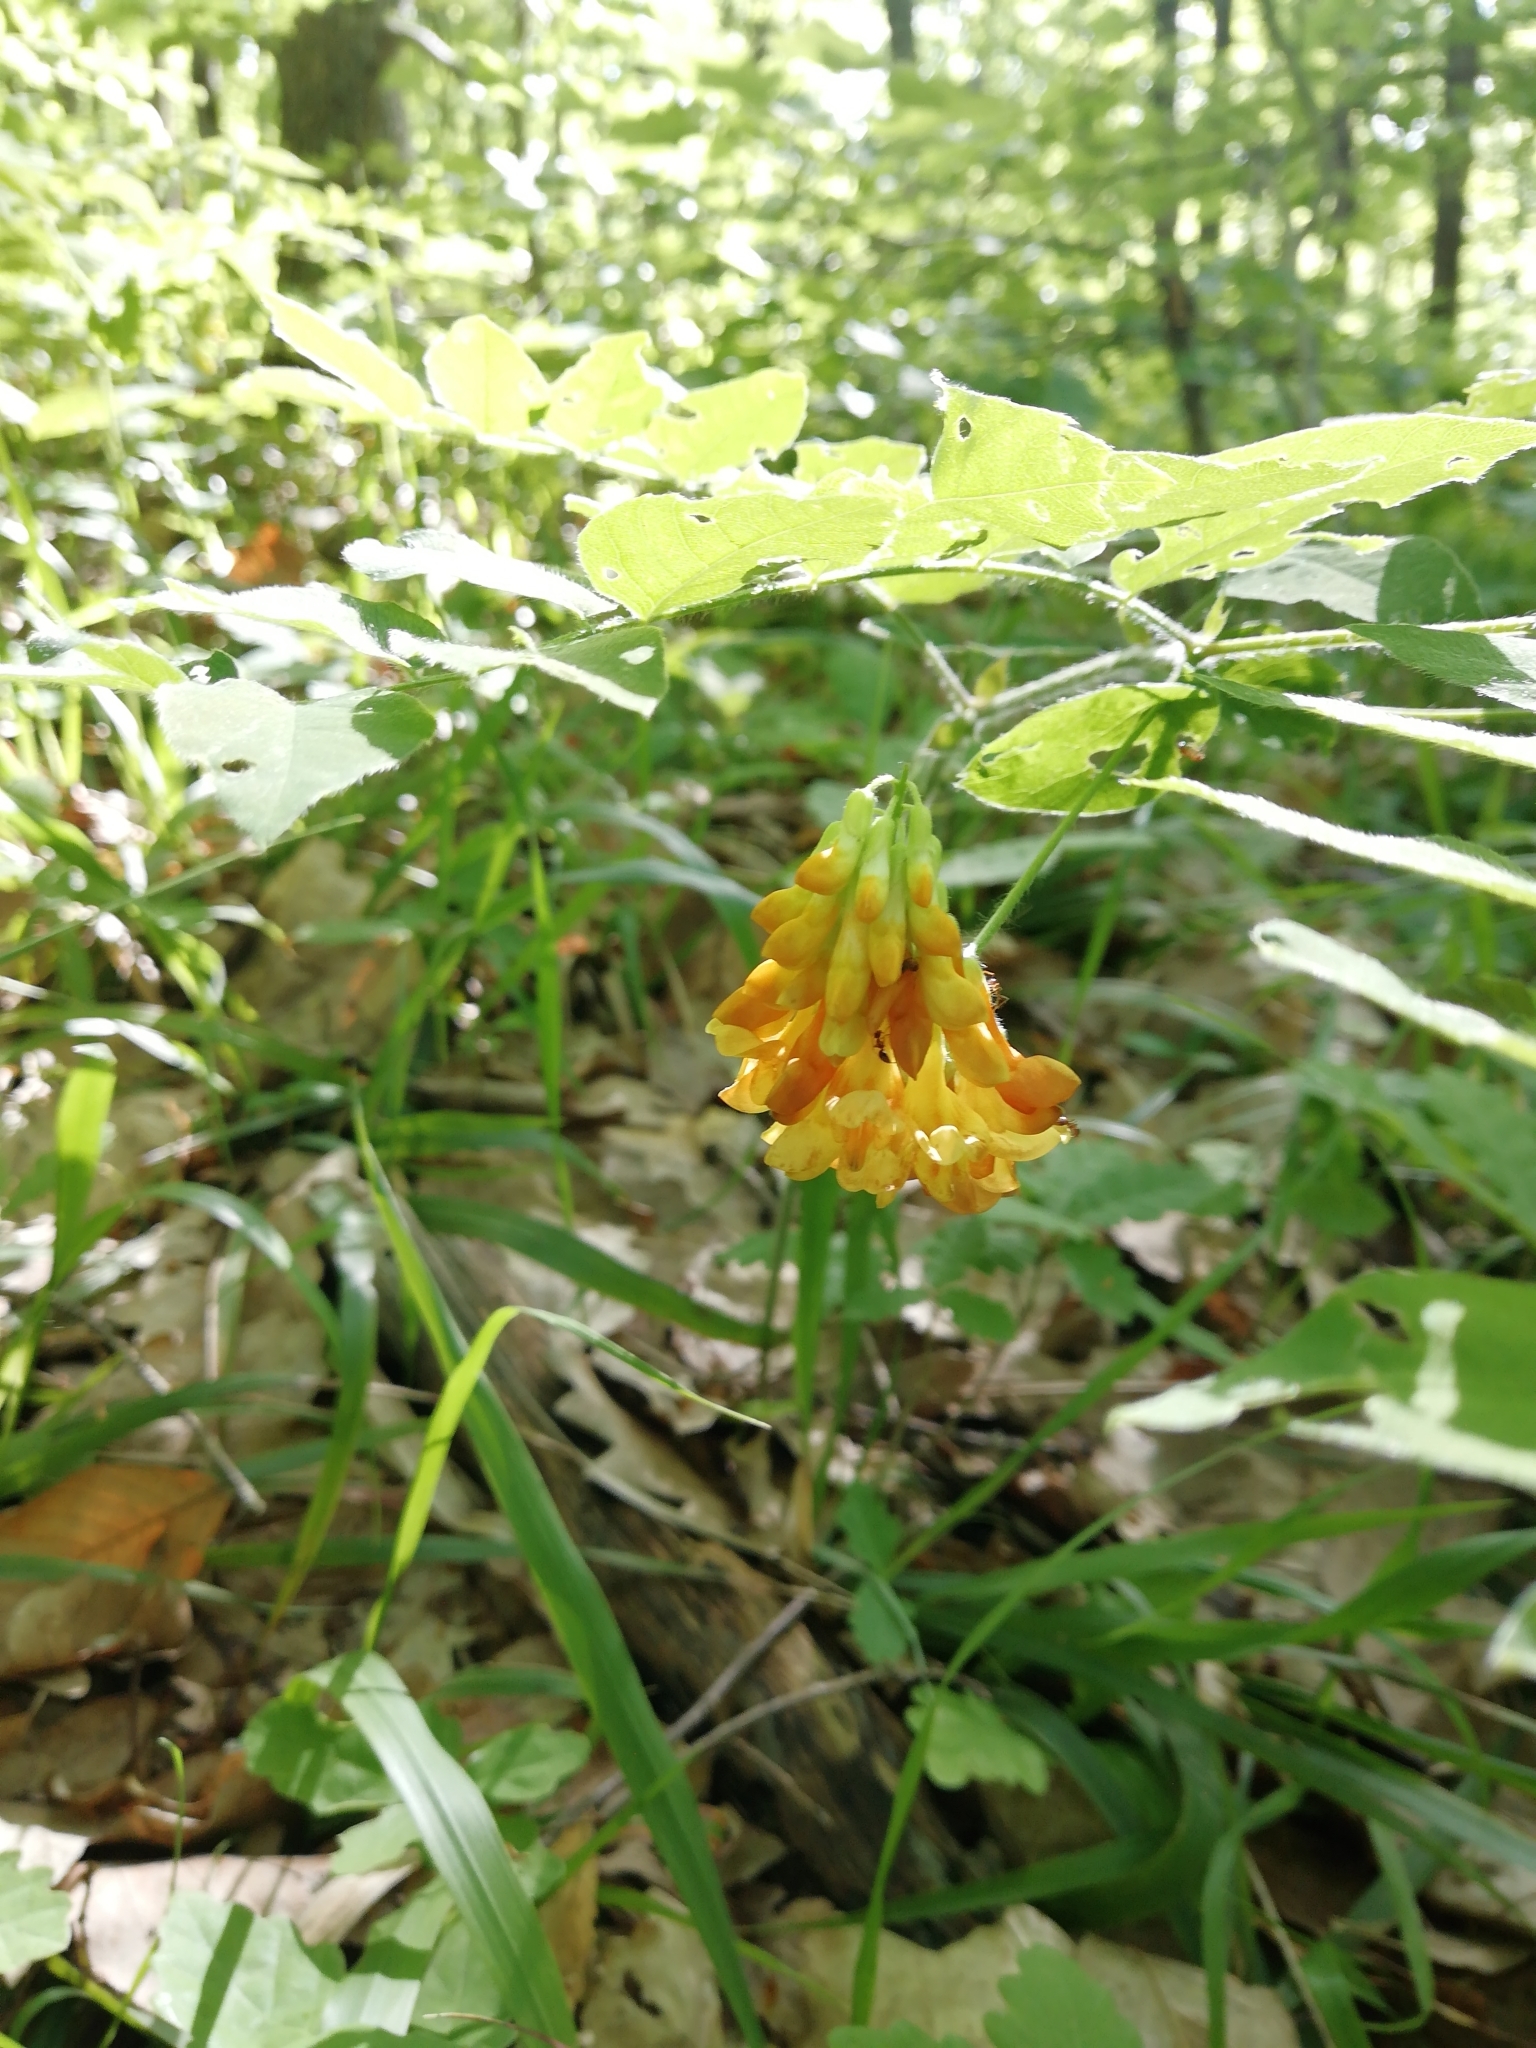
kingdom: Plantae
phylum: Tracheophyta
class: Magnoliopsida
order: Fabales
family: Fabaceae
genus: Vicia
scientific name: Vicia crocea
